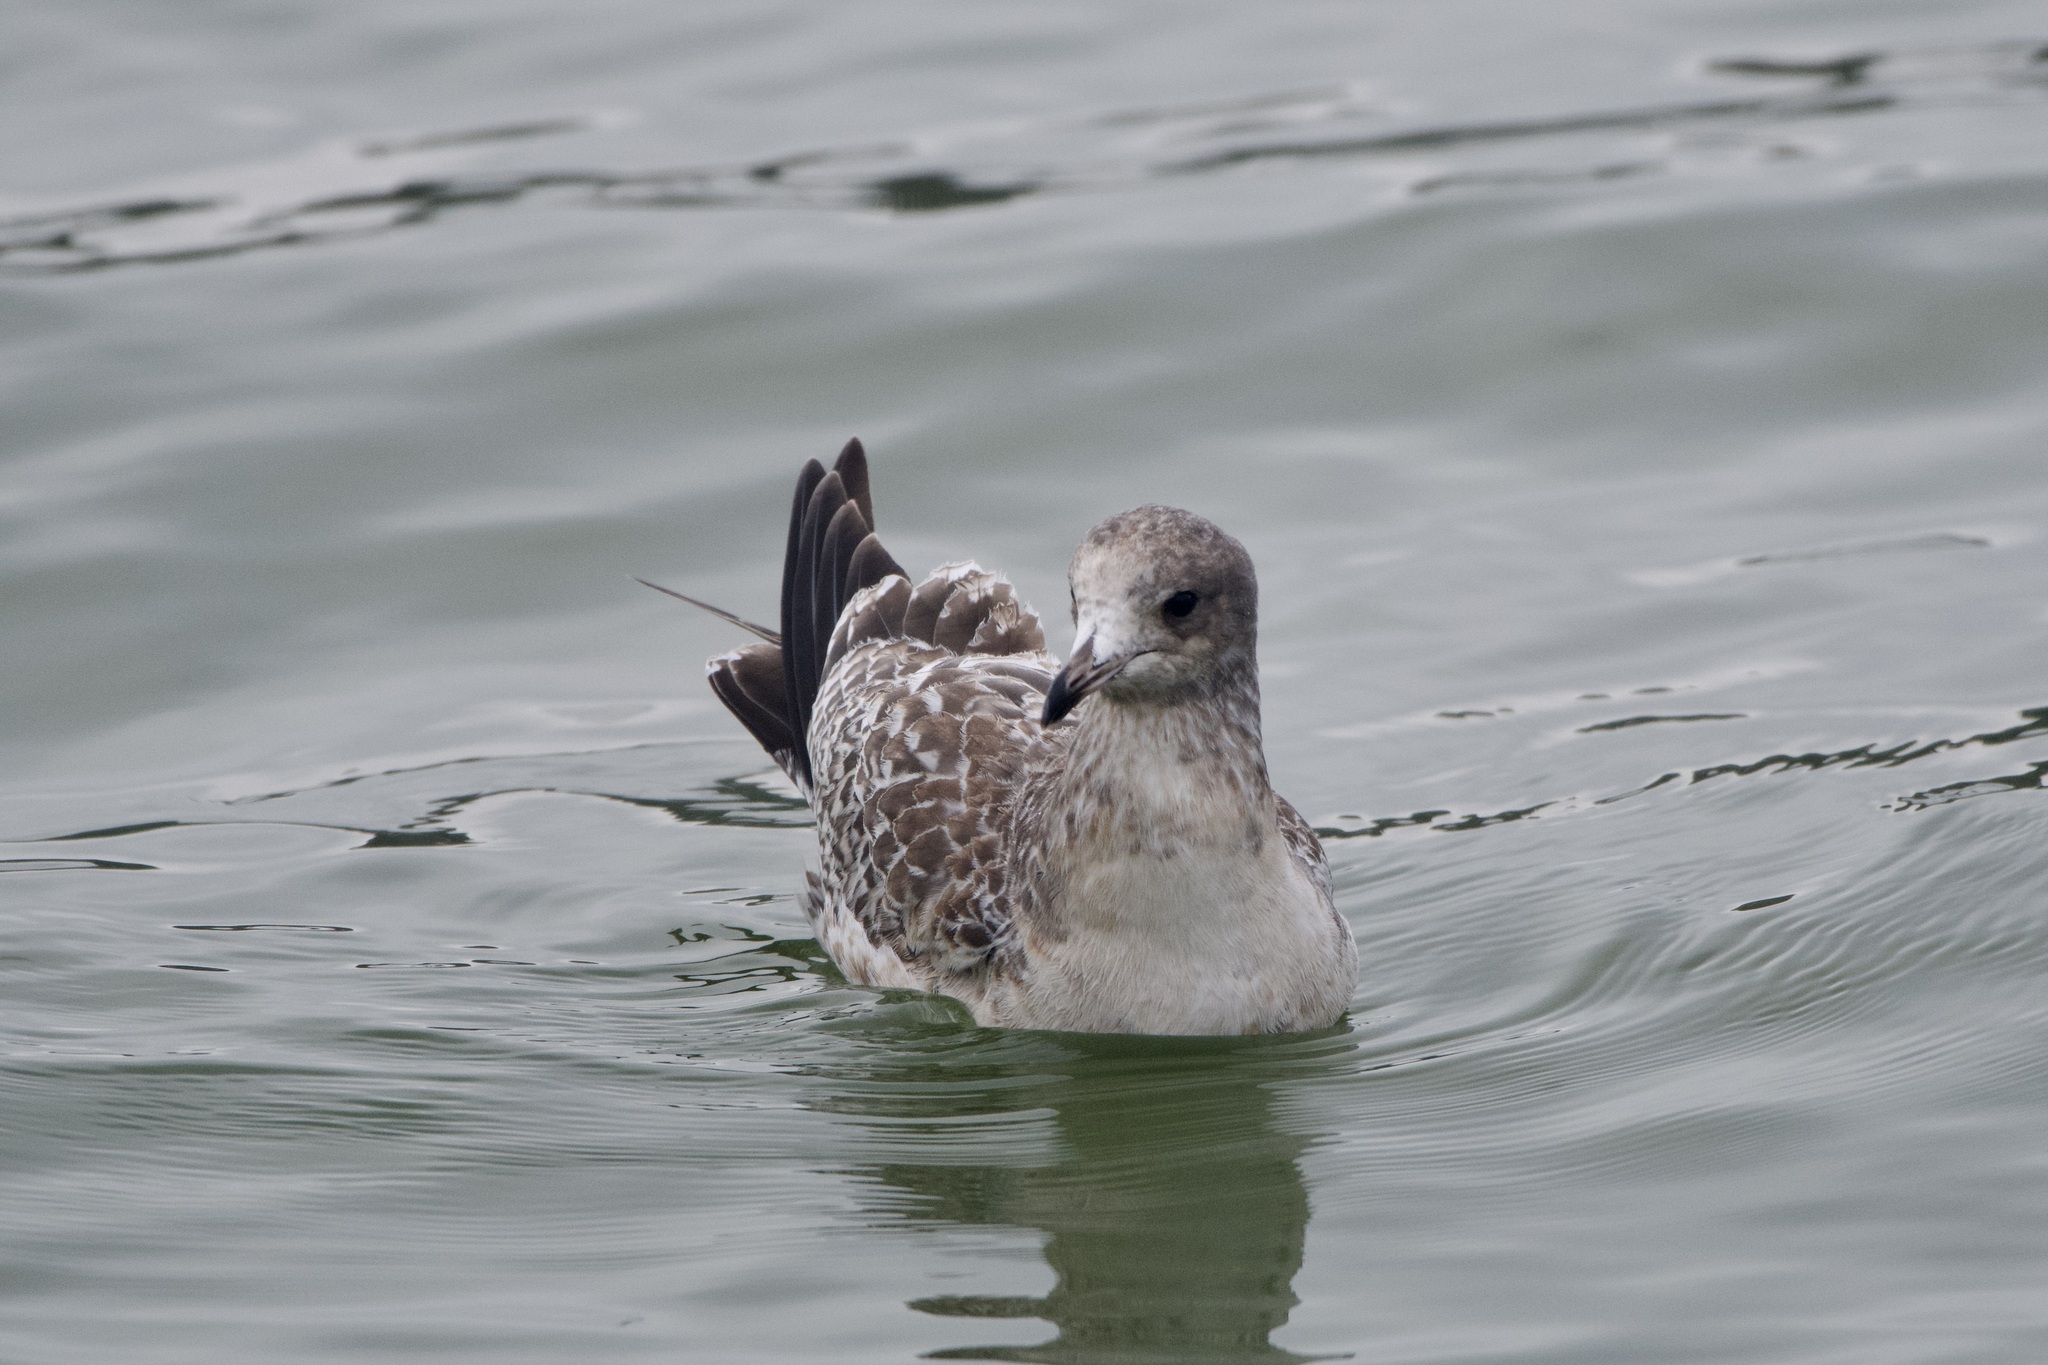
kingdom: Animalia
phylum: Chordata
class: Aves
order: Charadriiformes
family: Laridae
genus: Larus
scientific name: Larus californicus
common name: California gull
